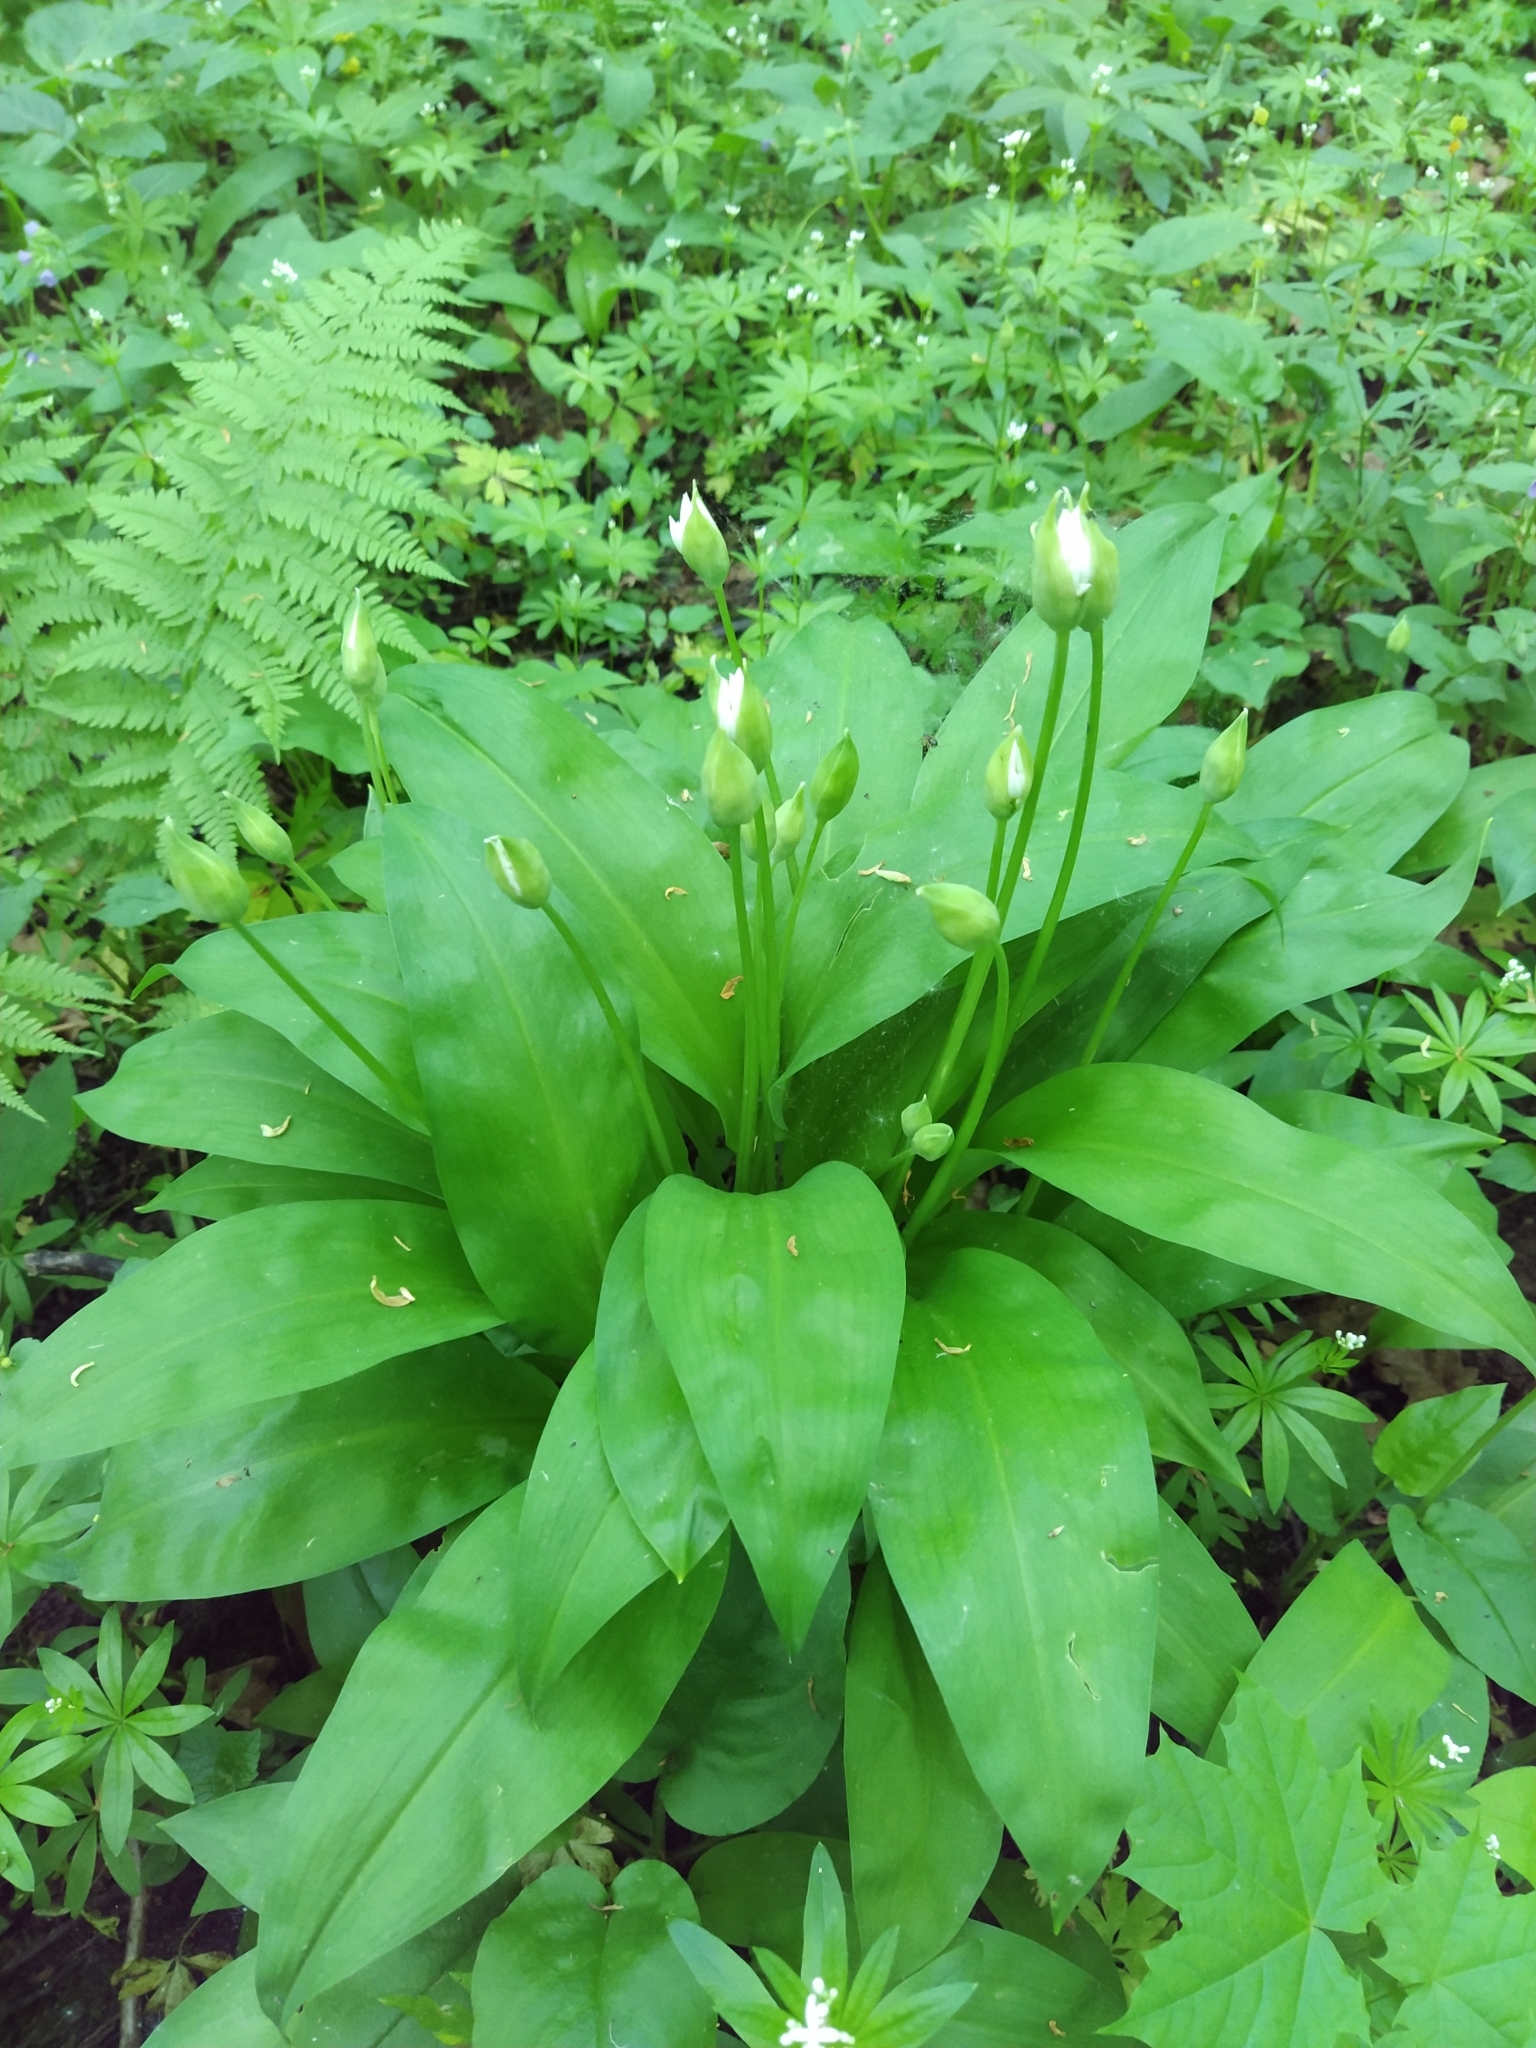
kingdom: Plantae
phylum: Tracheophyta
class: Liliopsida
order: Asparagales
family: Amaryllidaceae
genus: Allium
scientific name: Allium ursinum
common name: Ramsons
